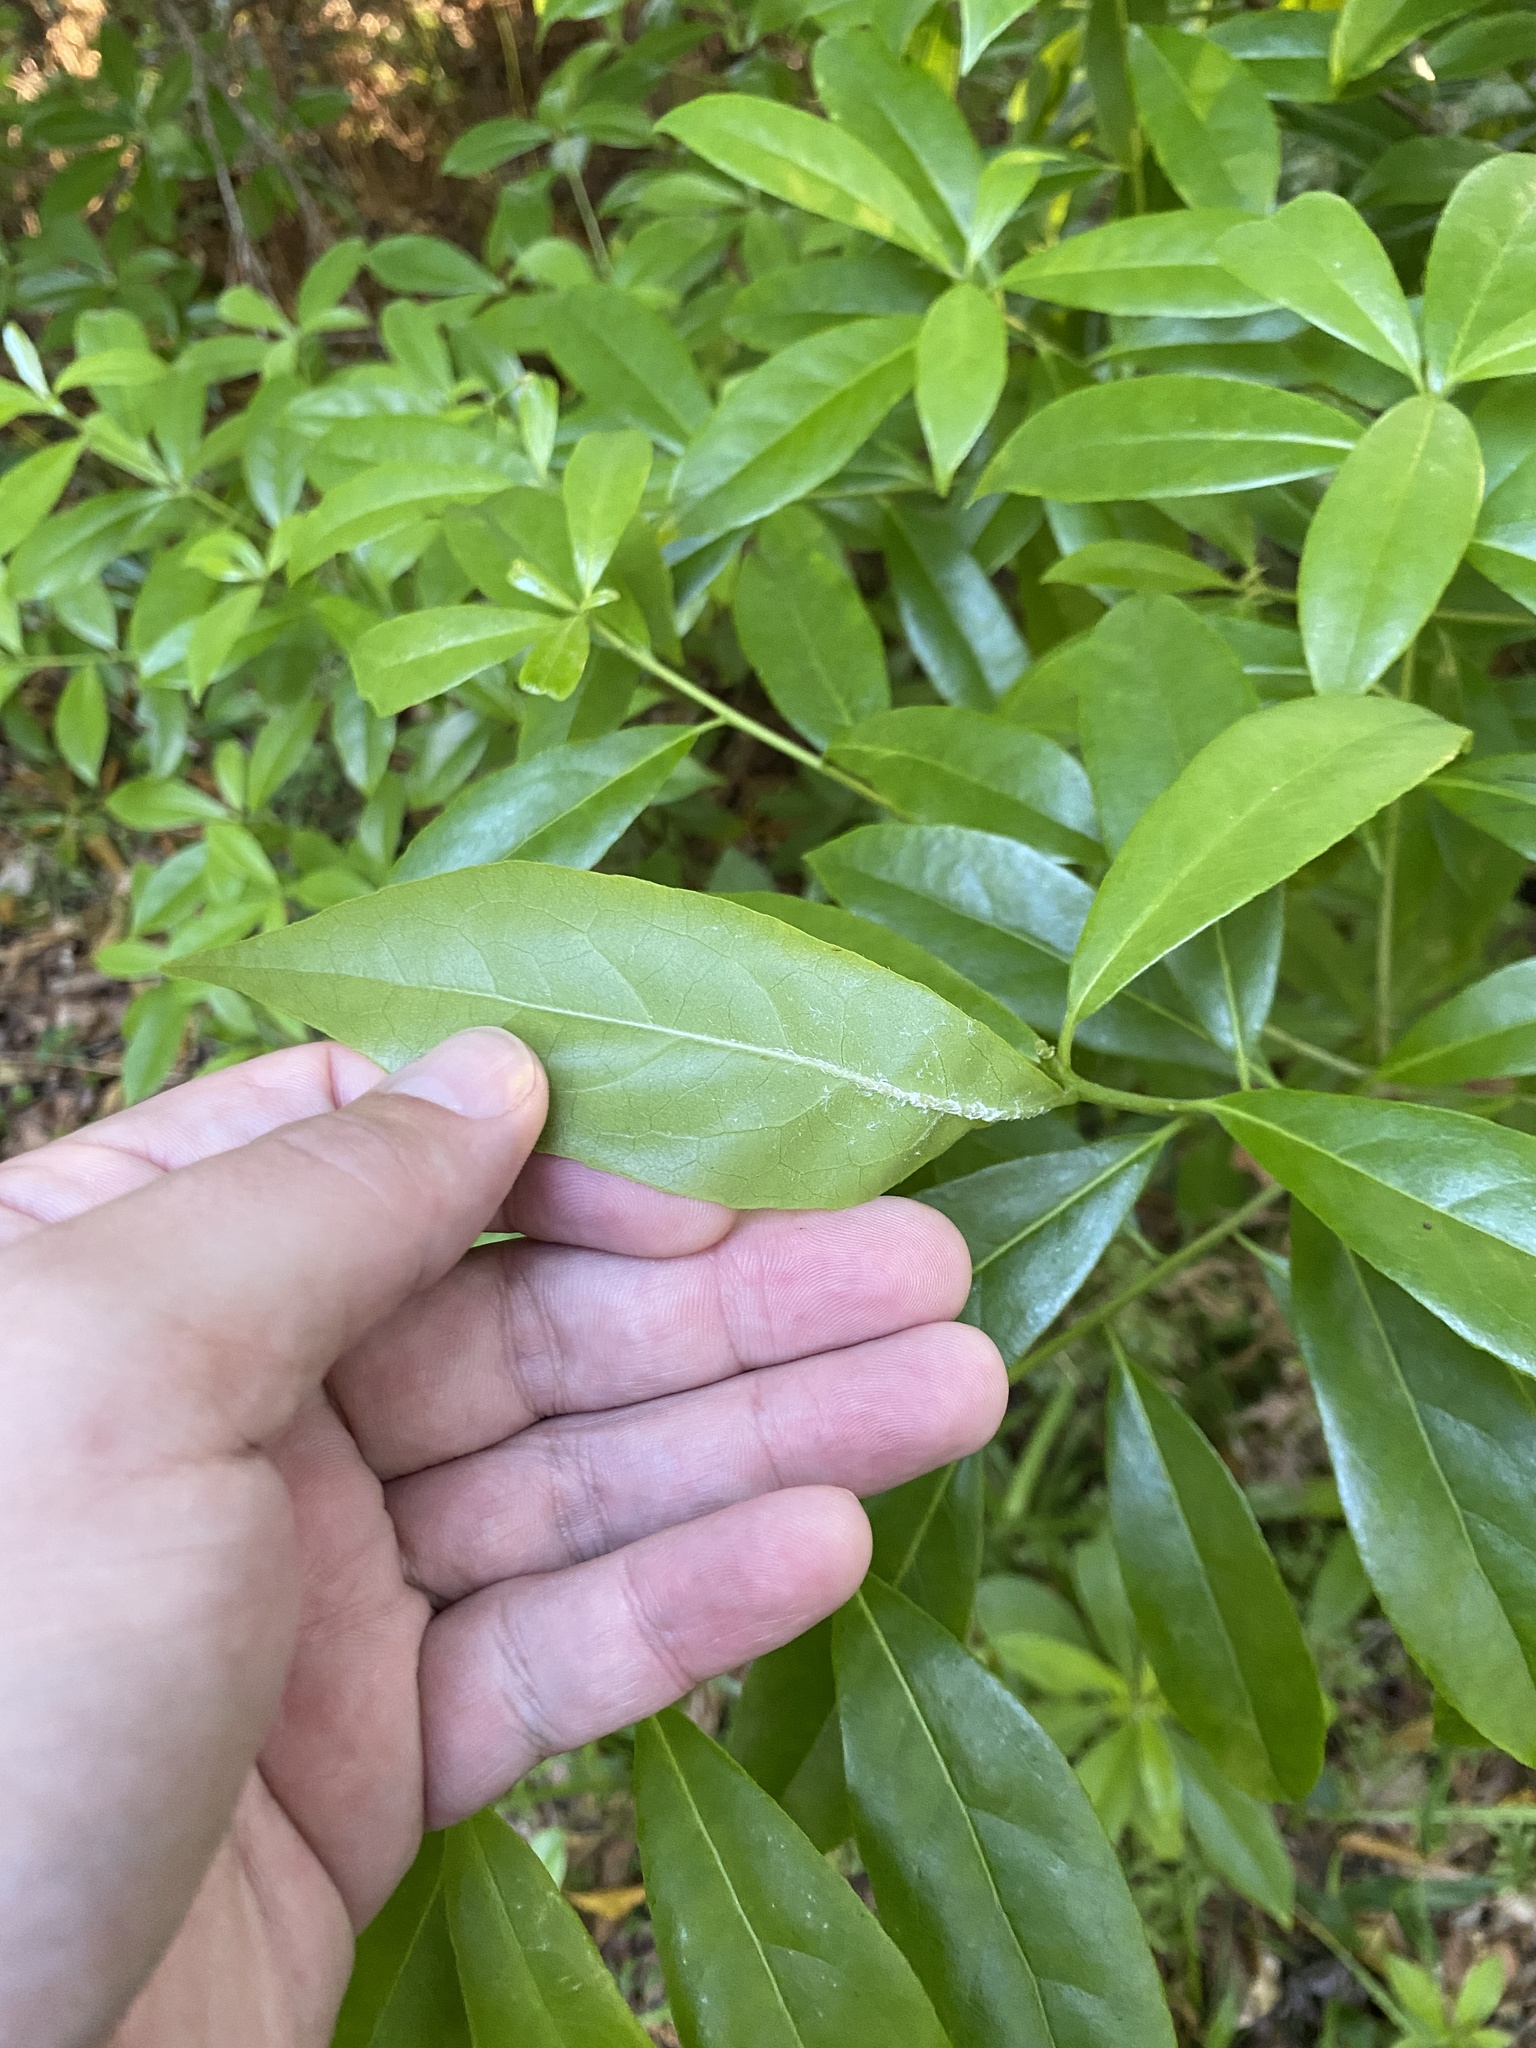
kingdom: Plantae
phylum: Tracheophyta
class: Magnoliopsida
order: Ericales
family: Symplocaceae
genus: Symplocos
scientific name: Symplocos tinctoria
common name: Horse-sugar
